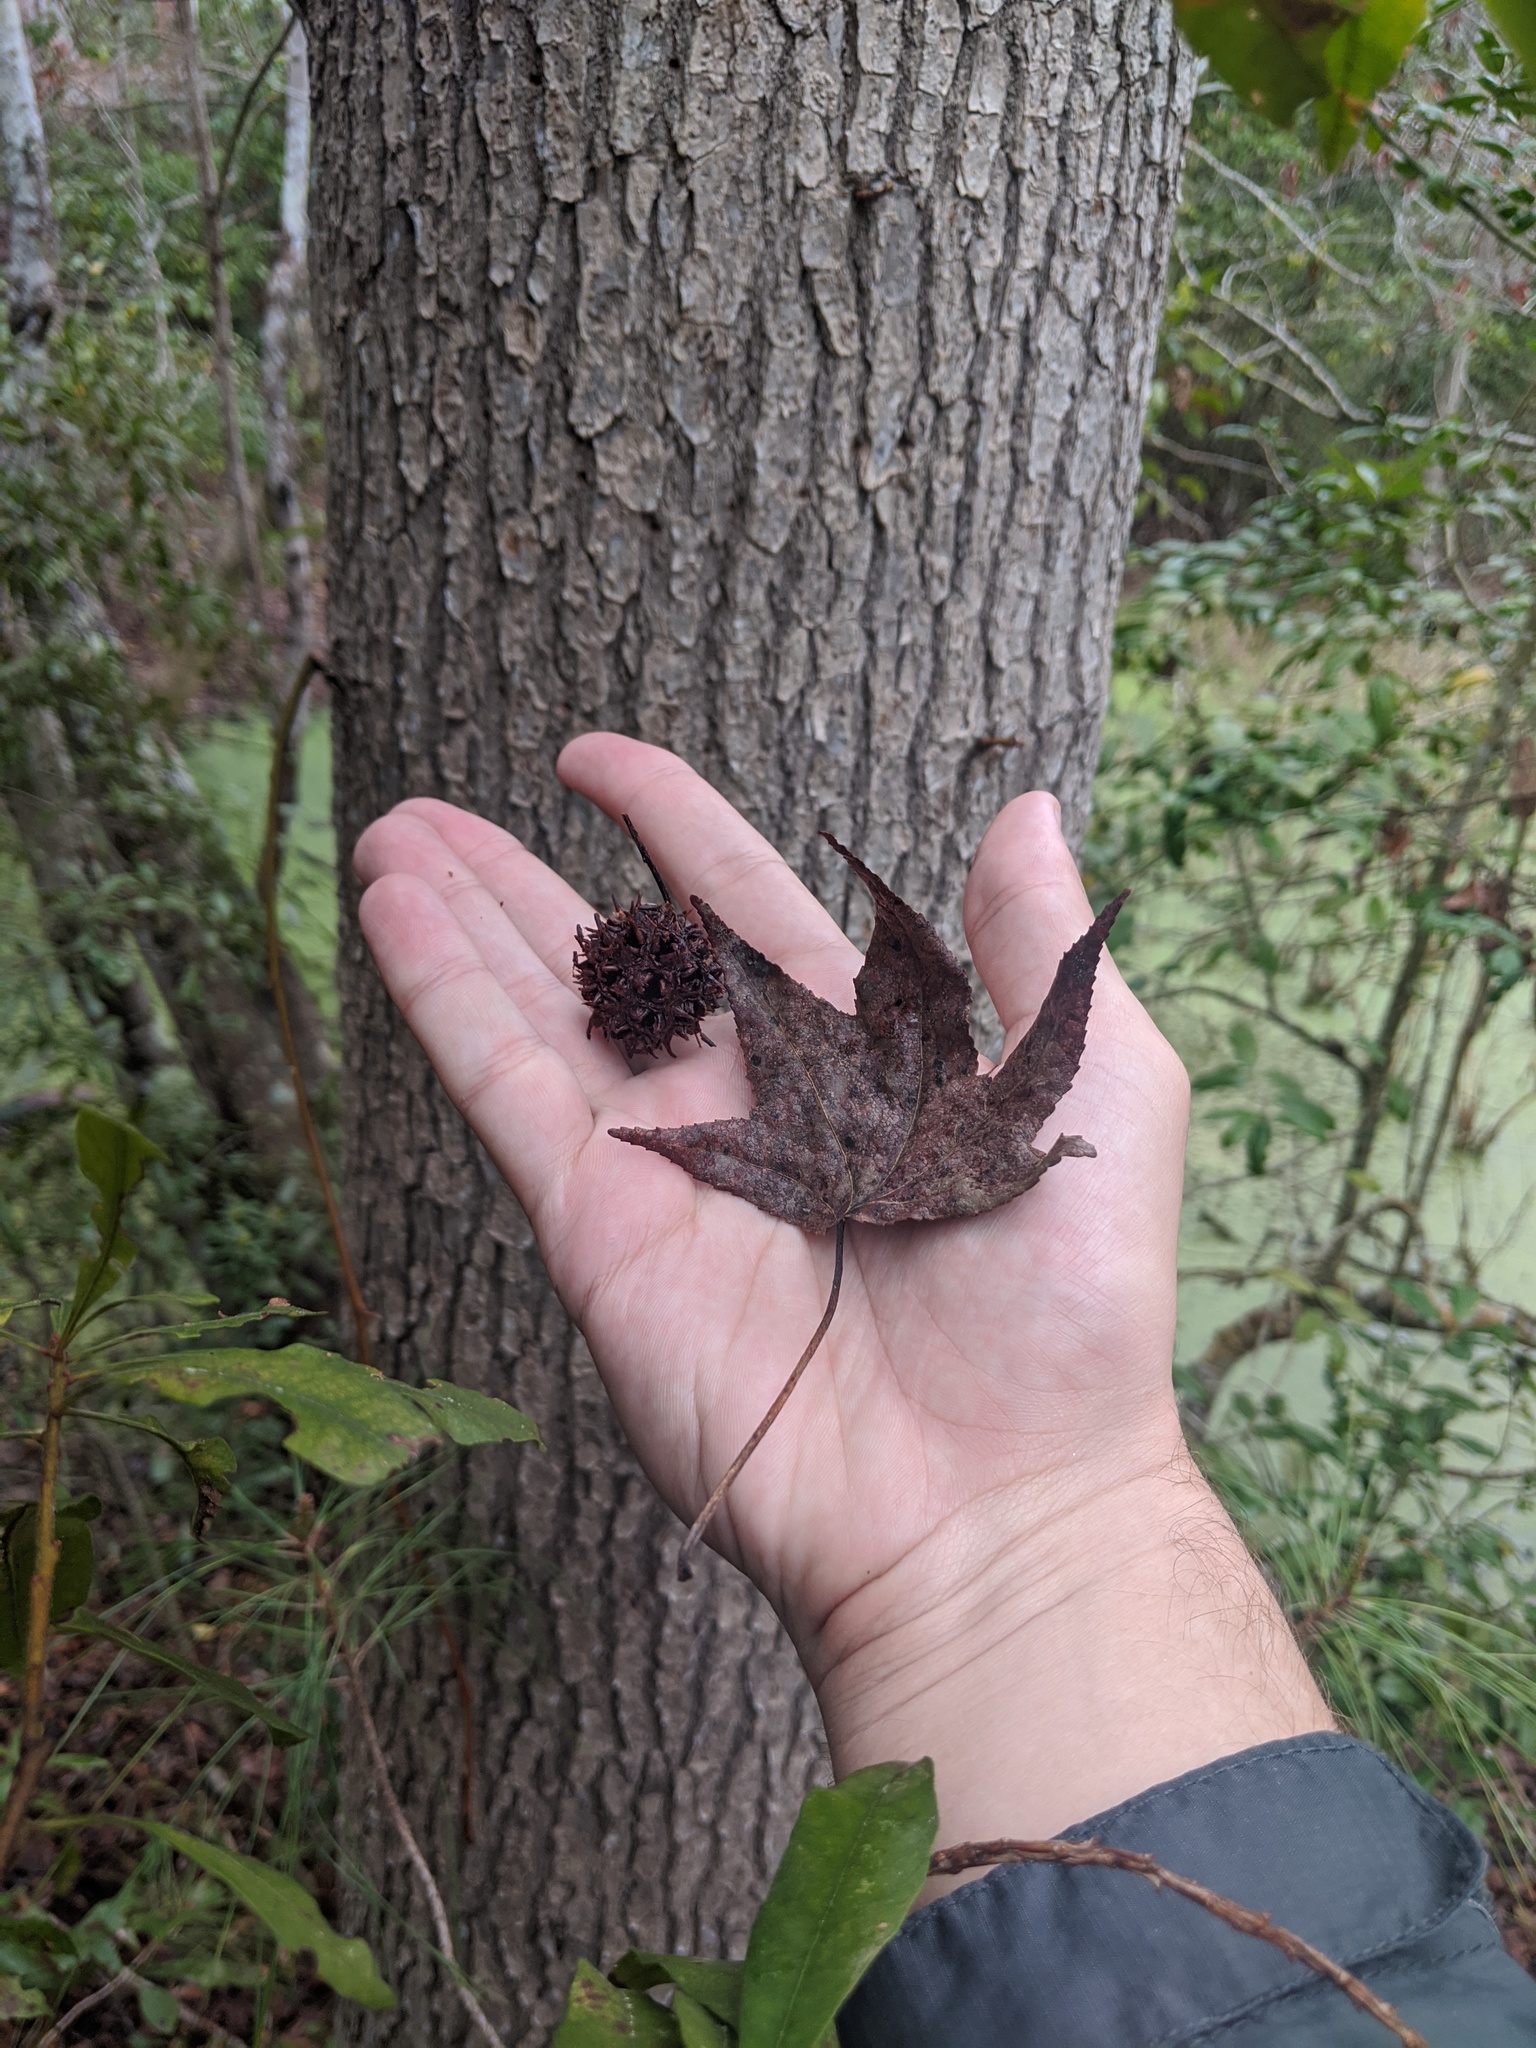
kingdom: Plantae
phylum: Tracheophyta
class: Magnoliopsida
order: Saxifragales
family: Altingiaceae
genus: Liquidambar
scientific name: Liquidambar styraciflua
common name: Sweet gum
